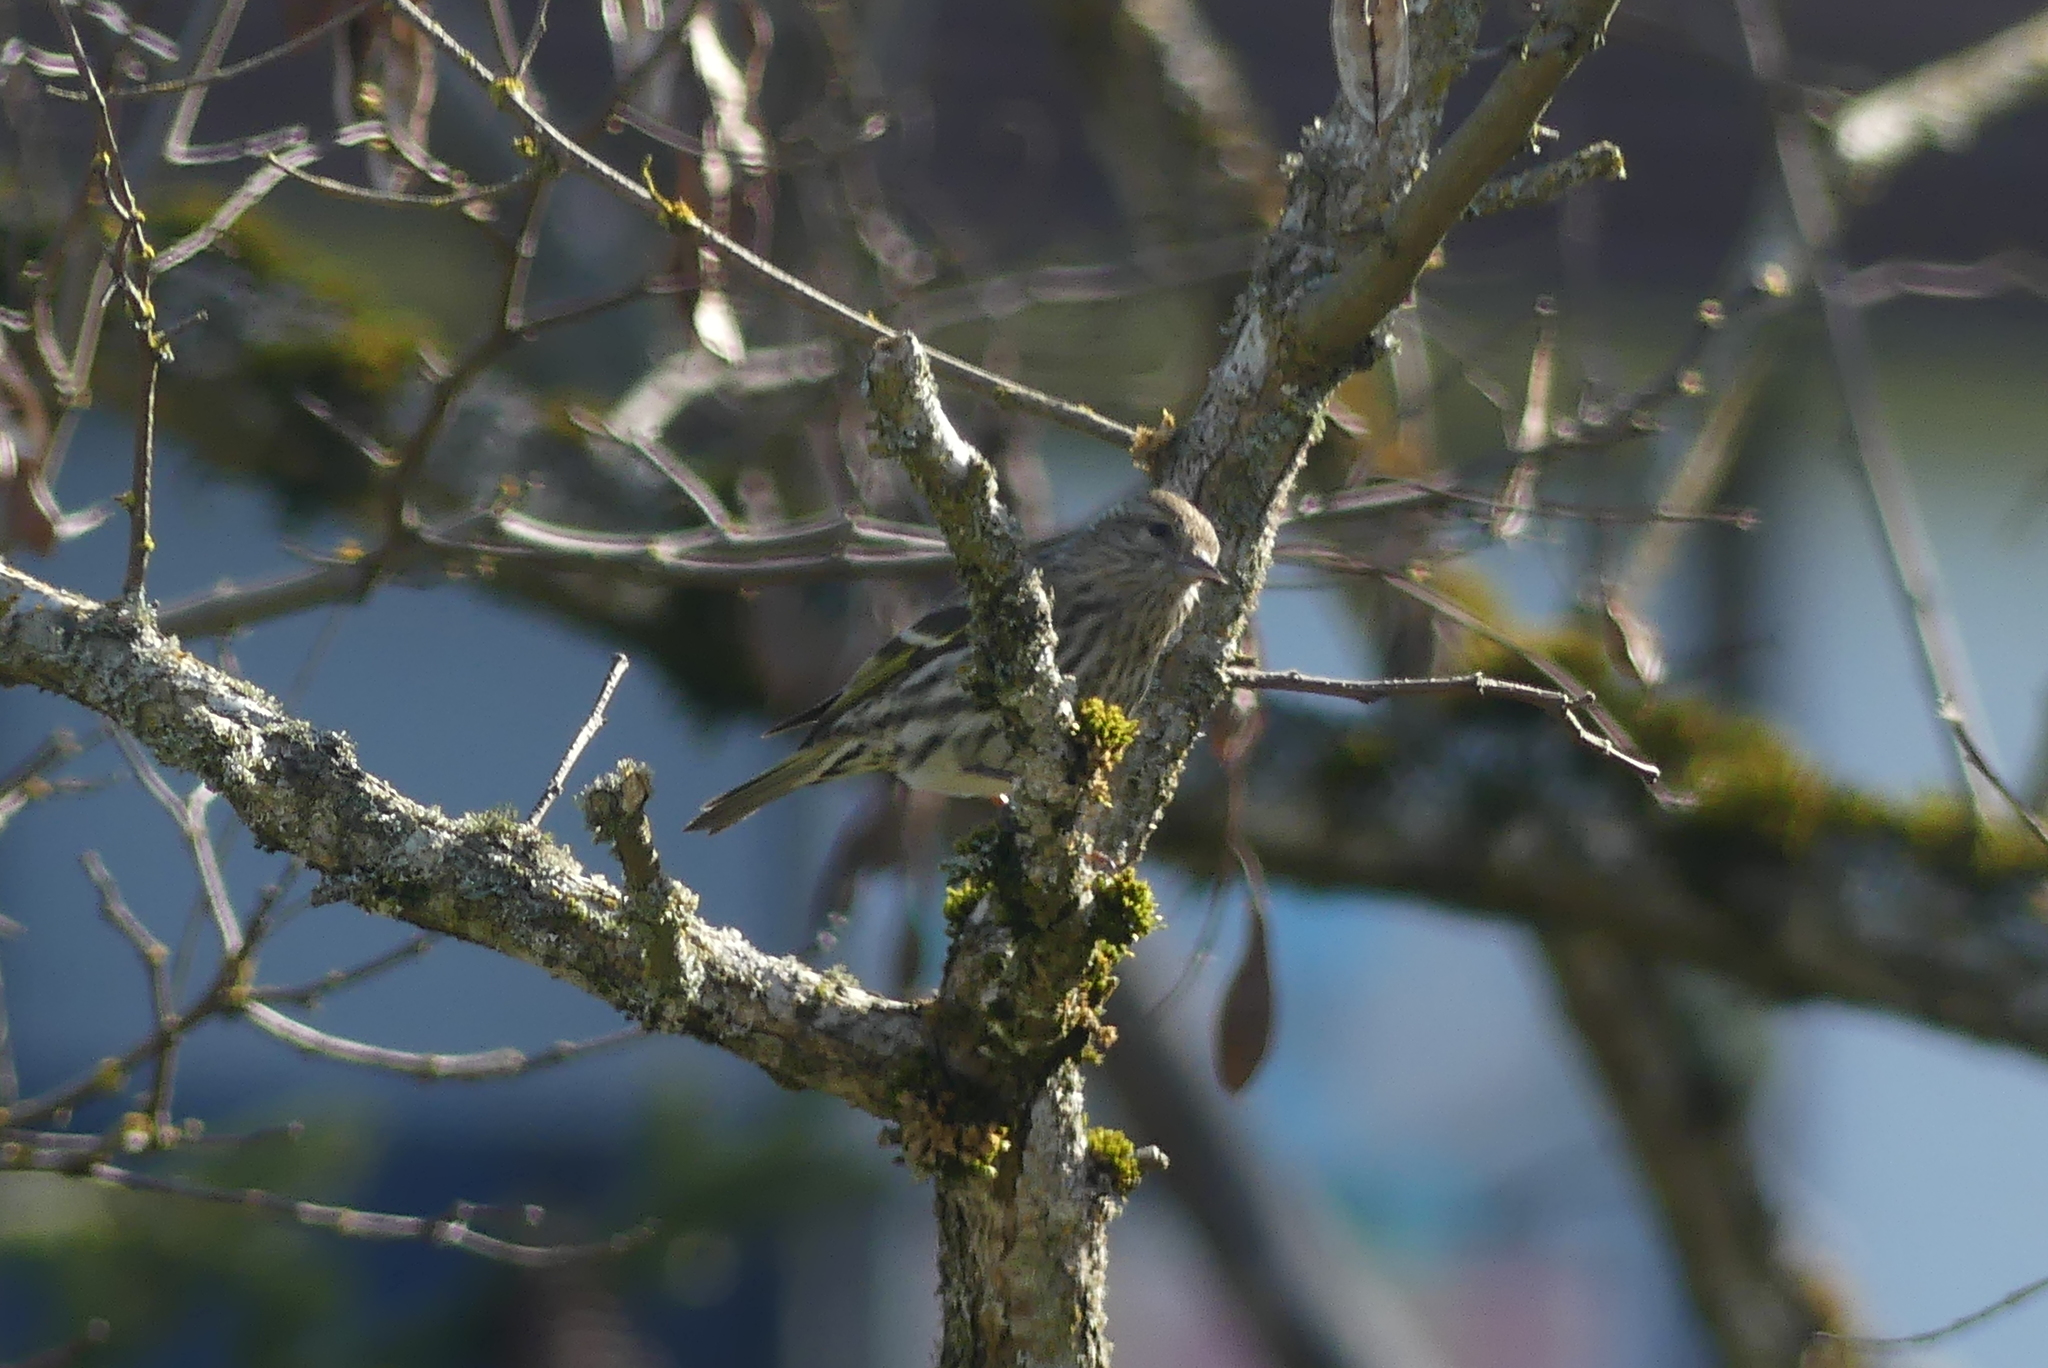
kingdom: Animalia
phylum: Chordata
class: Aves
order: Passeriformes
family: Fringillidae
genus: Spinus
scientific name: Spinus pinus
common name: Pine siskin
